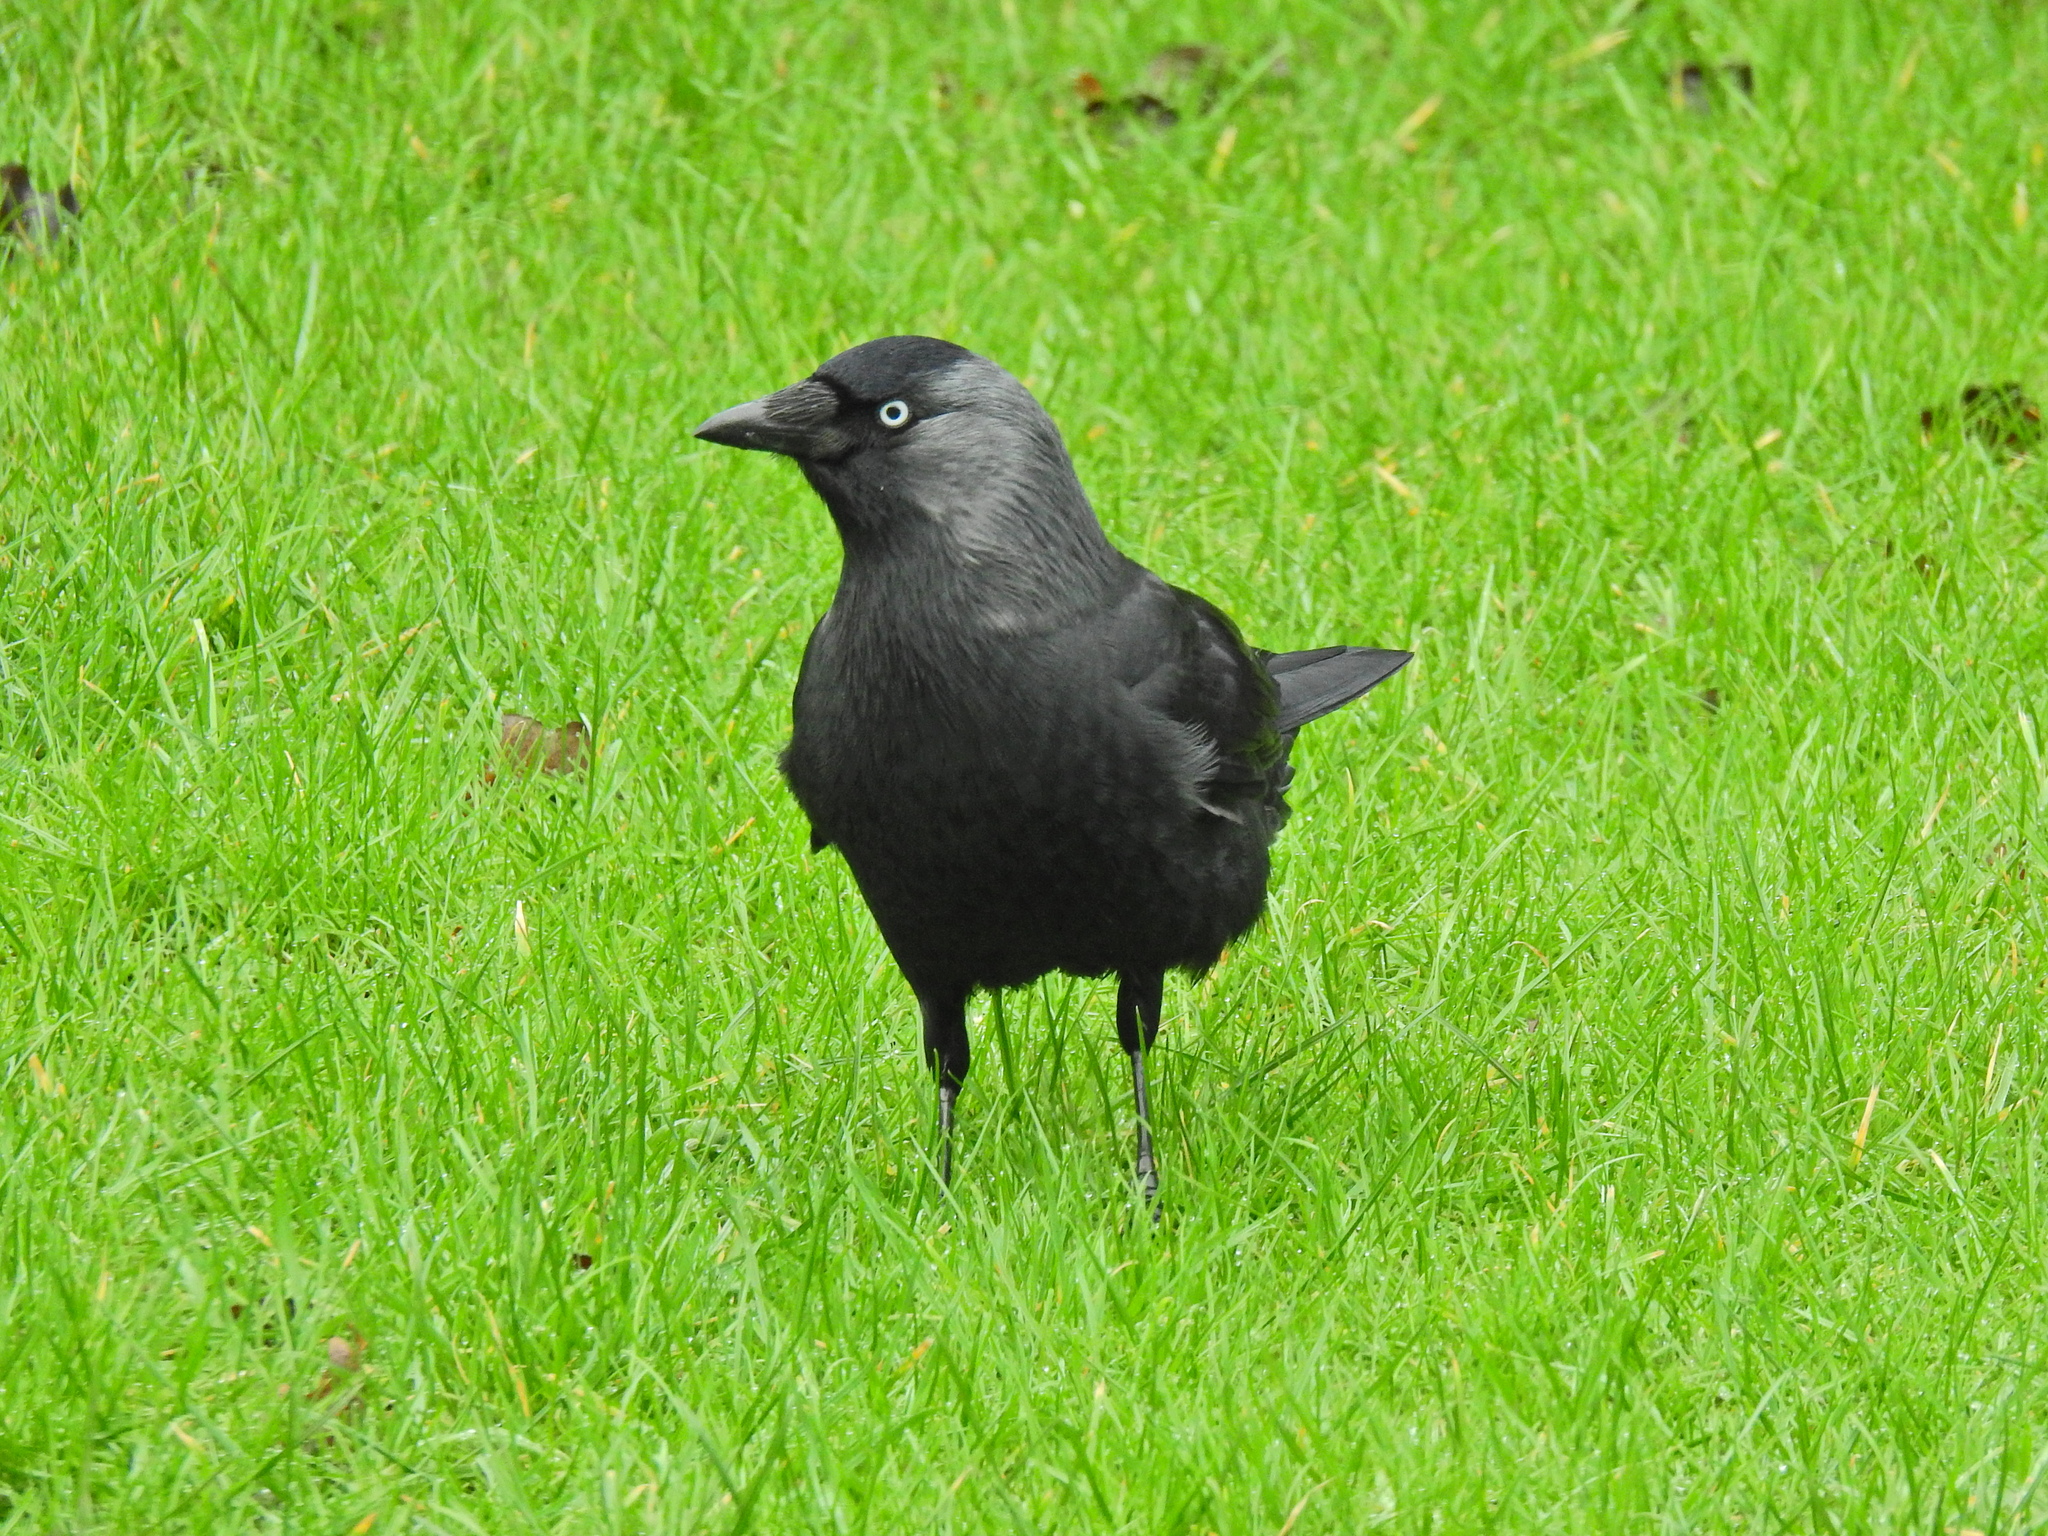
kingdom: Animalia
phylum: Chordata
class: Aves
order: Passeriformes
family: Corvidae
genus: Coloeus
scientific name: Coloeus monedula
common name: Western jackdaw
